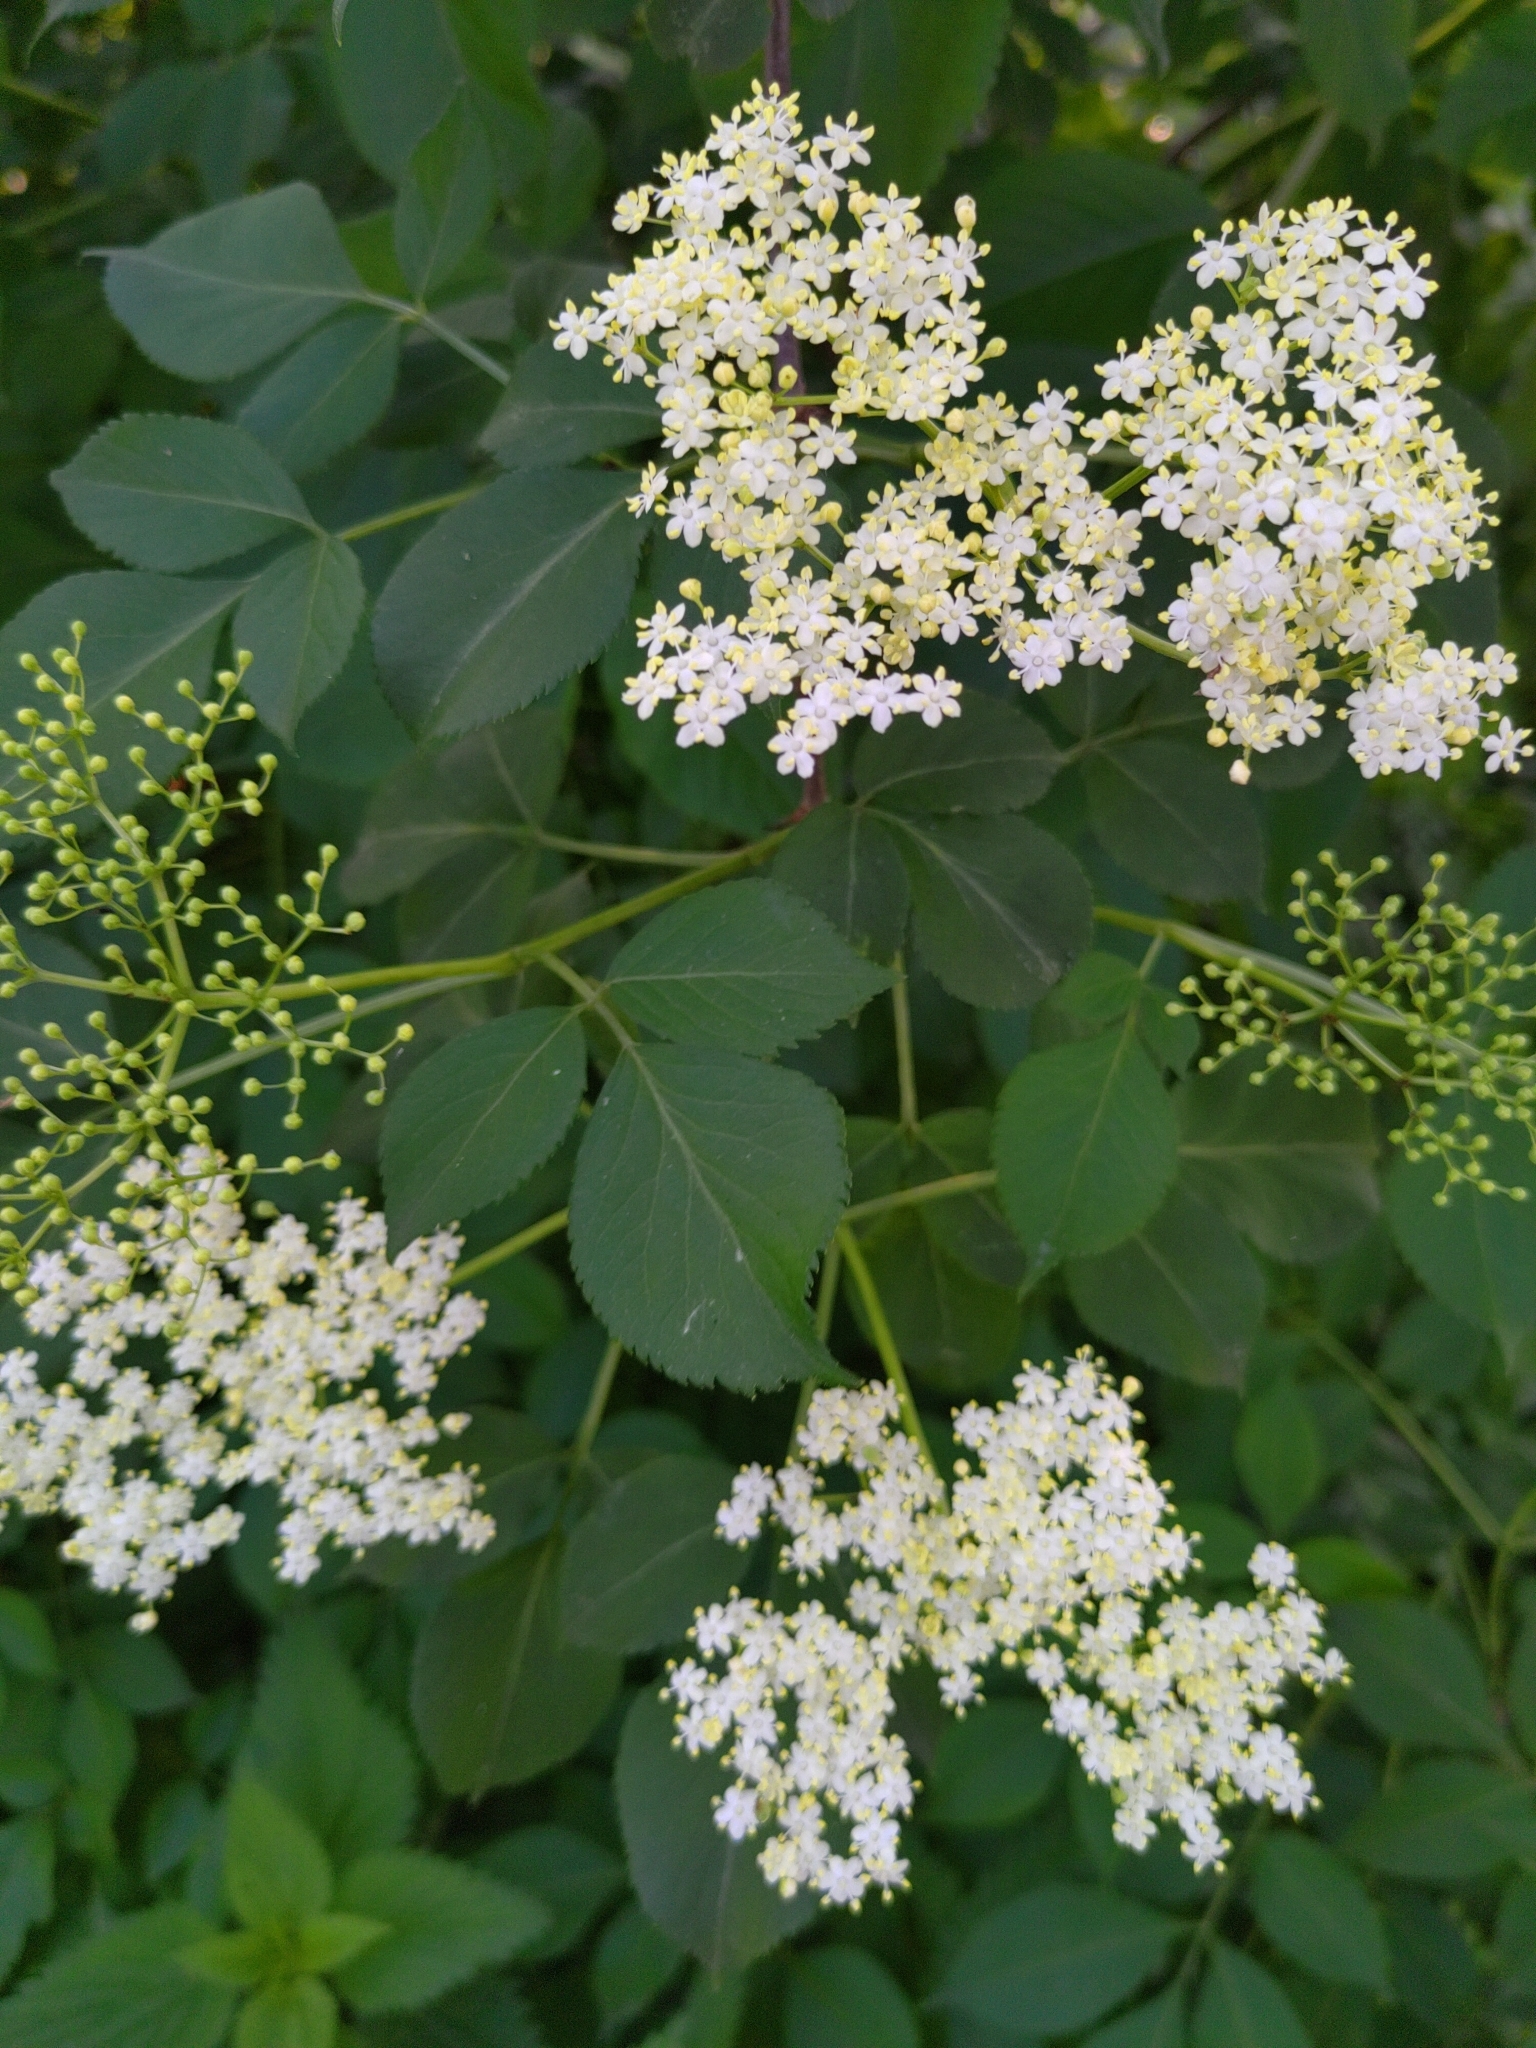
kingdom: Plantae
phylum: Tracheophyta
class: Magnoliopsida
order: Dipsacales
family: Viburnaceae
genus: Sambucus
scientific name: Sambucus nigra
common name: Elder
